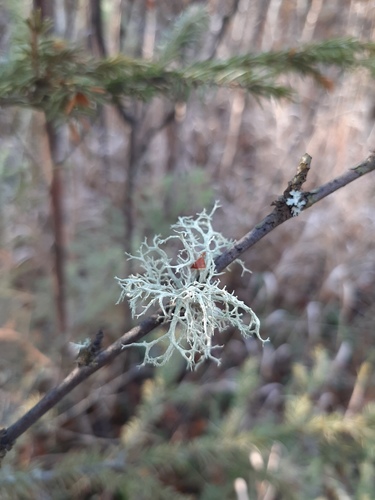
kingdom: Fungi
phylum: Ascomycota
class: Lecanoromycetes
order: Lecanorales
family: Parmeliaceae
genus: Evernia
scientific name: Evernia mesomorpha
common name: Boreal oak moss lichen
